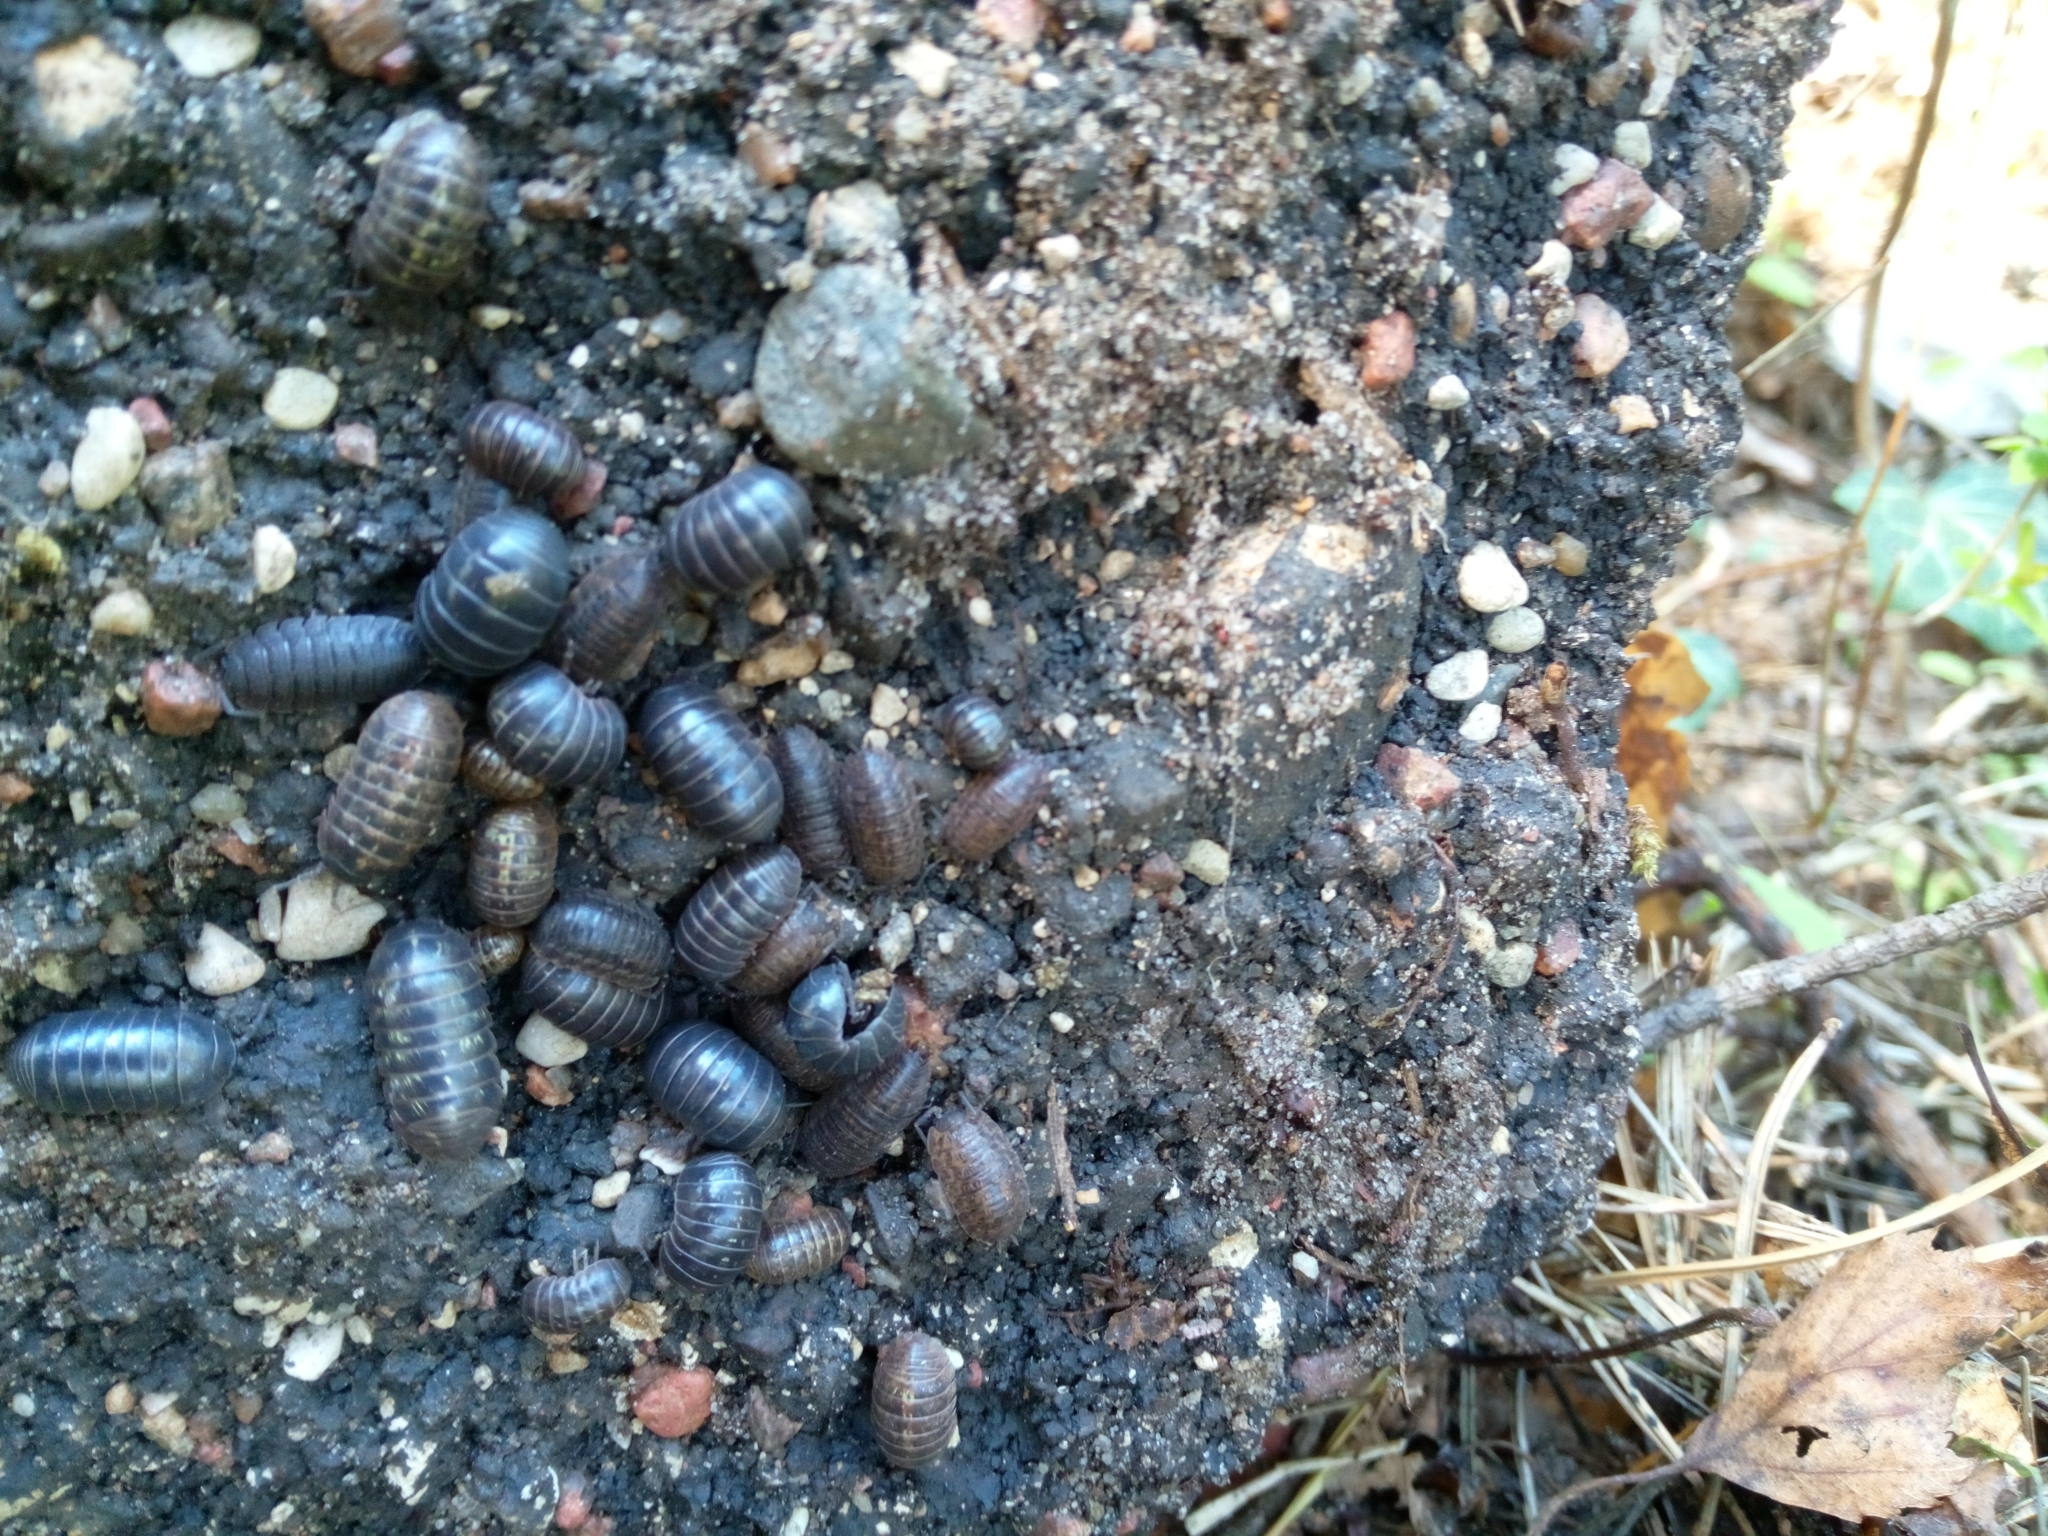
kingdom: Animalia
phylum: Arthropoda
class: Malacostraca
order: Isopoda
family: Armadillidiidae
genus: Armadillidium
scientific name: Armadillidium vulgare
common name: Common pill woodlouse
